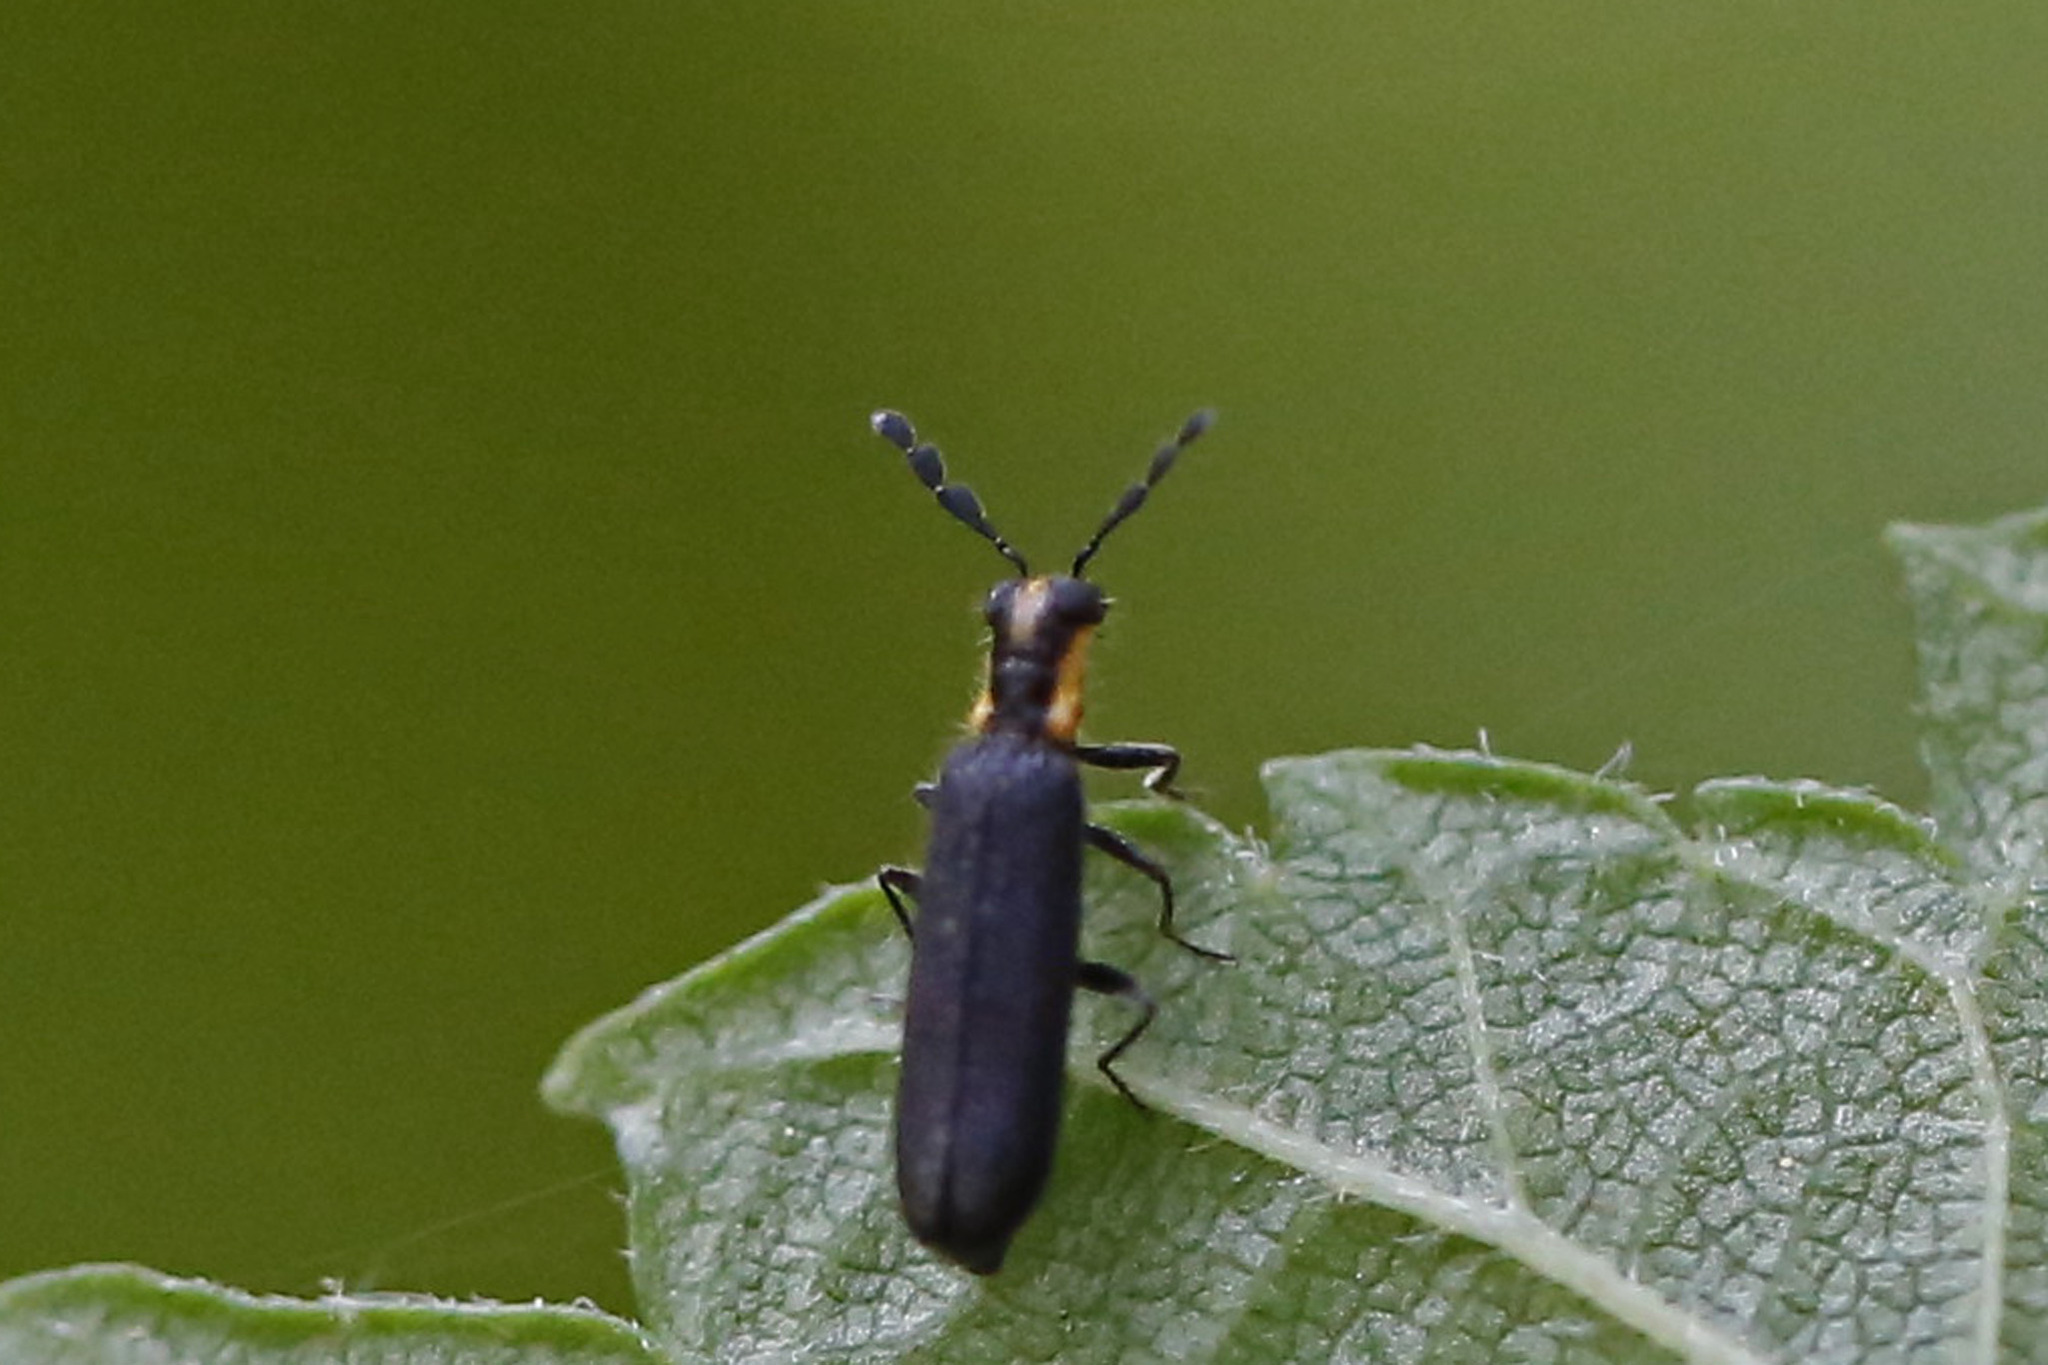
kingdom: Animalia
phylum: Arthropoda
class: Insecta
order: Coleoptera
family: Cleridae
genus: Pyticeroides
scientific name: Pyticeroides laticornis
